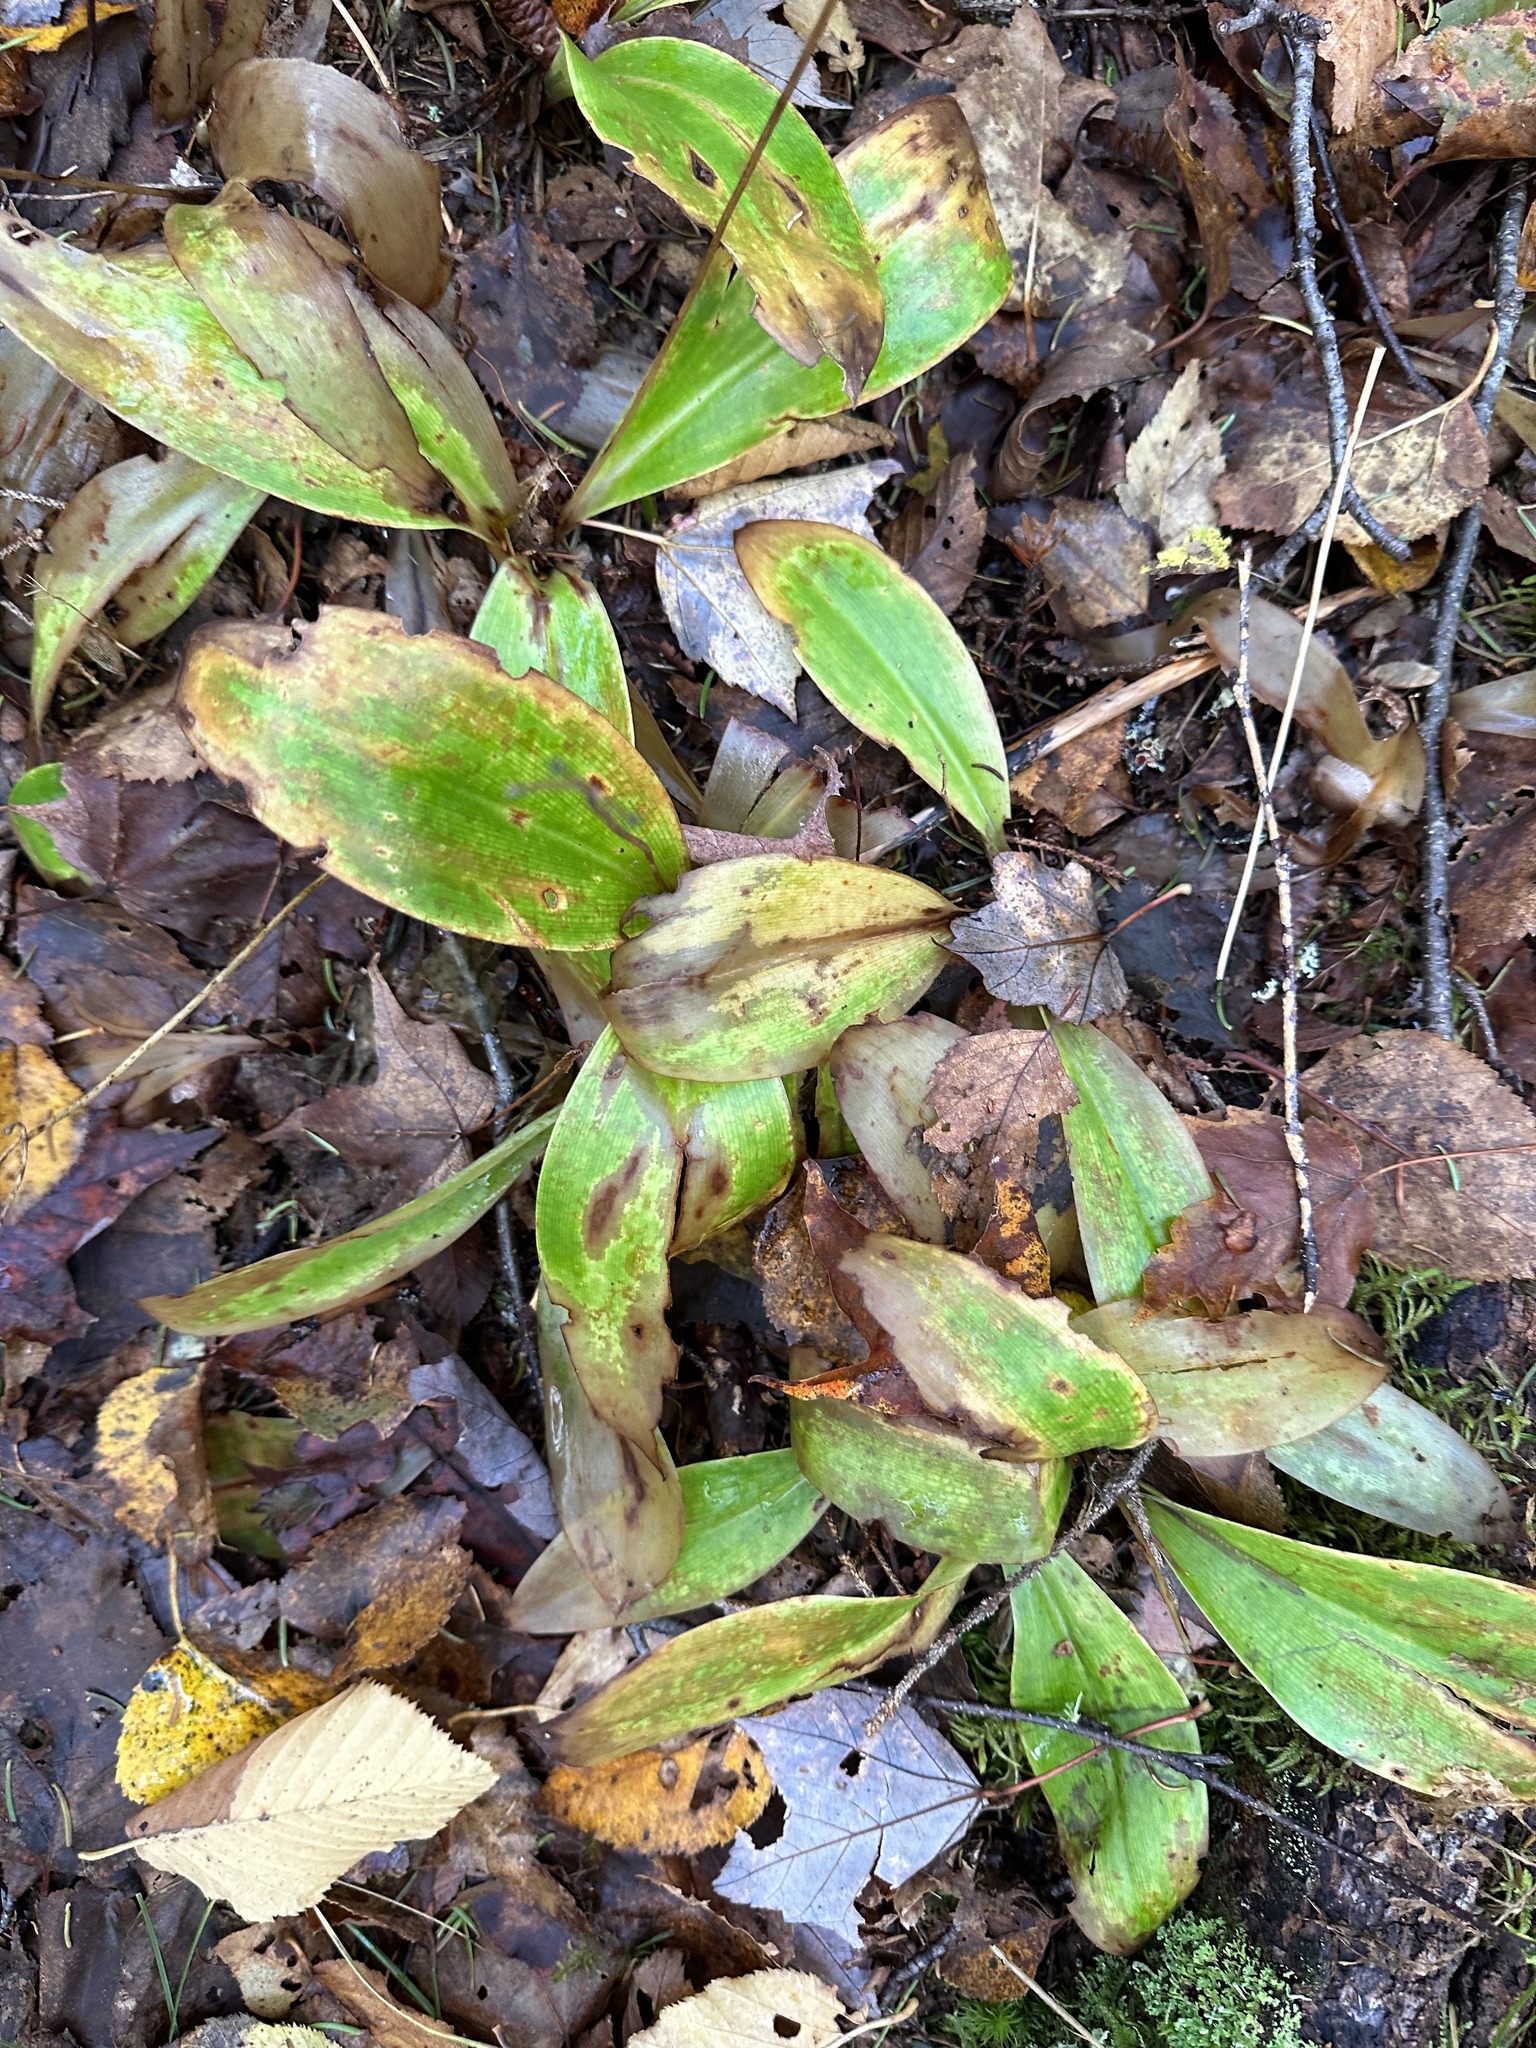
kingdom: Plantae
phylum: Tracheophyta
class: Liliopsida
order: Liliales
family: Liliaceae
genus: Clintonia
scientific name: Clintonia borealis
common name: Yellow clintonia
